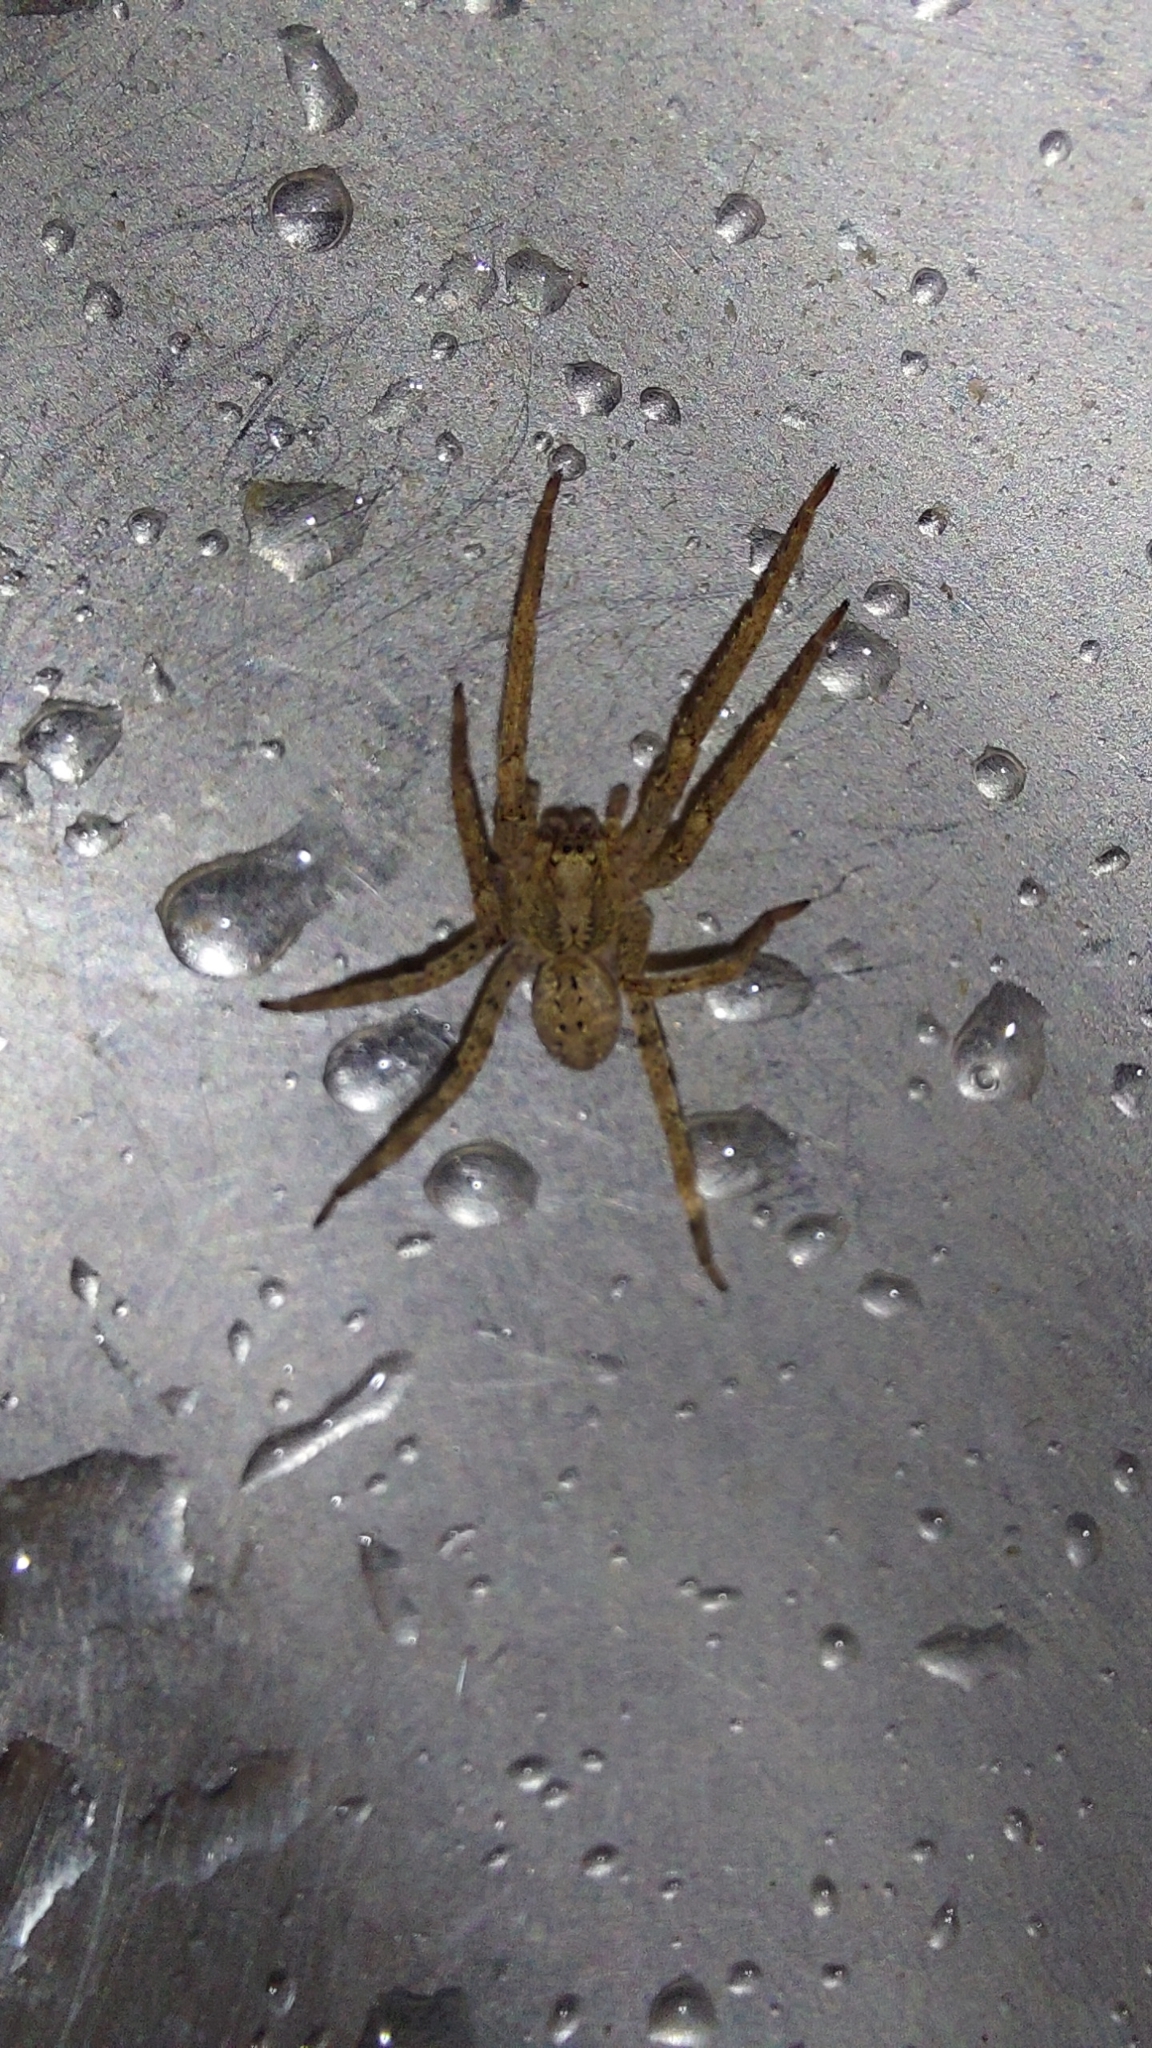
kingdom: Animalia
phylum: Arthropoda
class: Arachnida
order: Araneae
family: Zoropsidae
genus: Zoropsis
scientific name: Zoropsis spinimana
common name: Zoropsid spider
